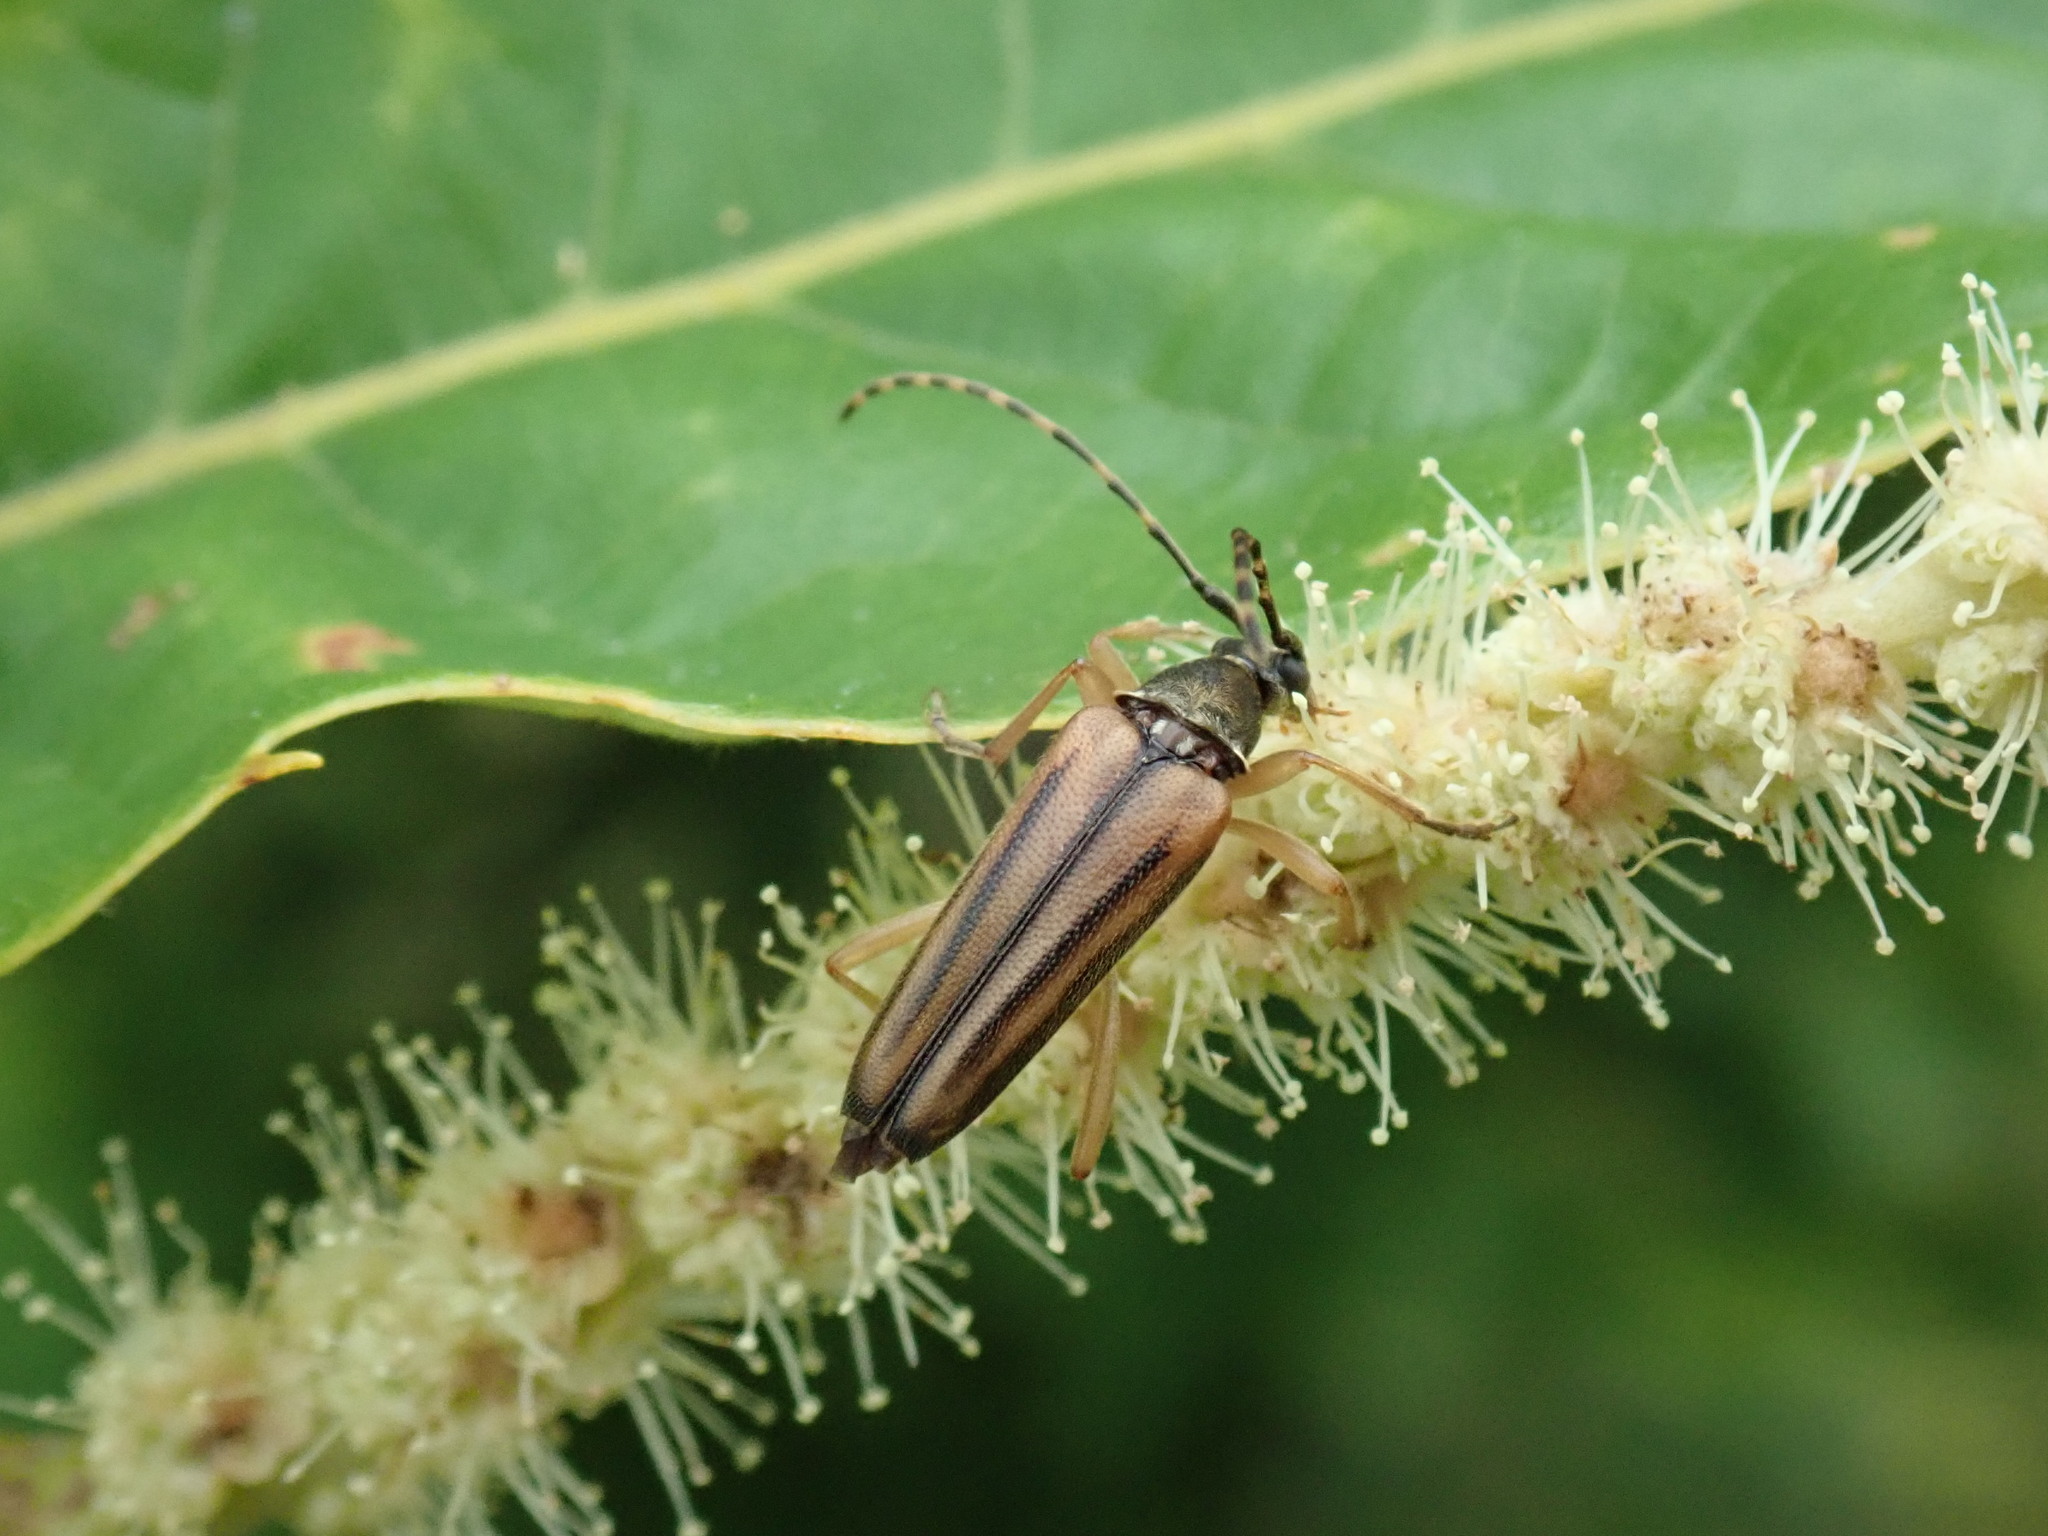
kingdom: Animalia
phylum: Arthropoda
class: Insecta
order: Coleoptera
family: Cerambycidae
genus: Analeptura
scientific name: Analeptura lineola
